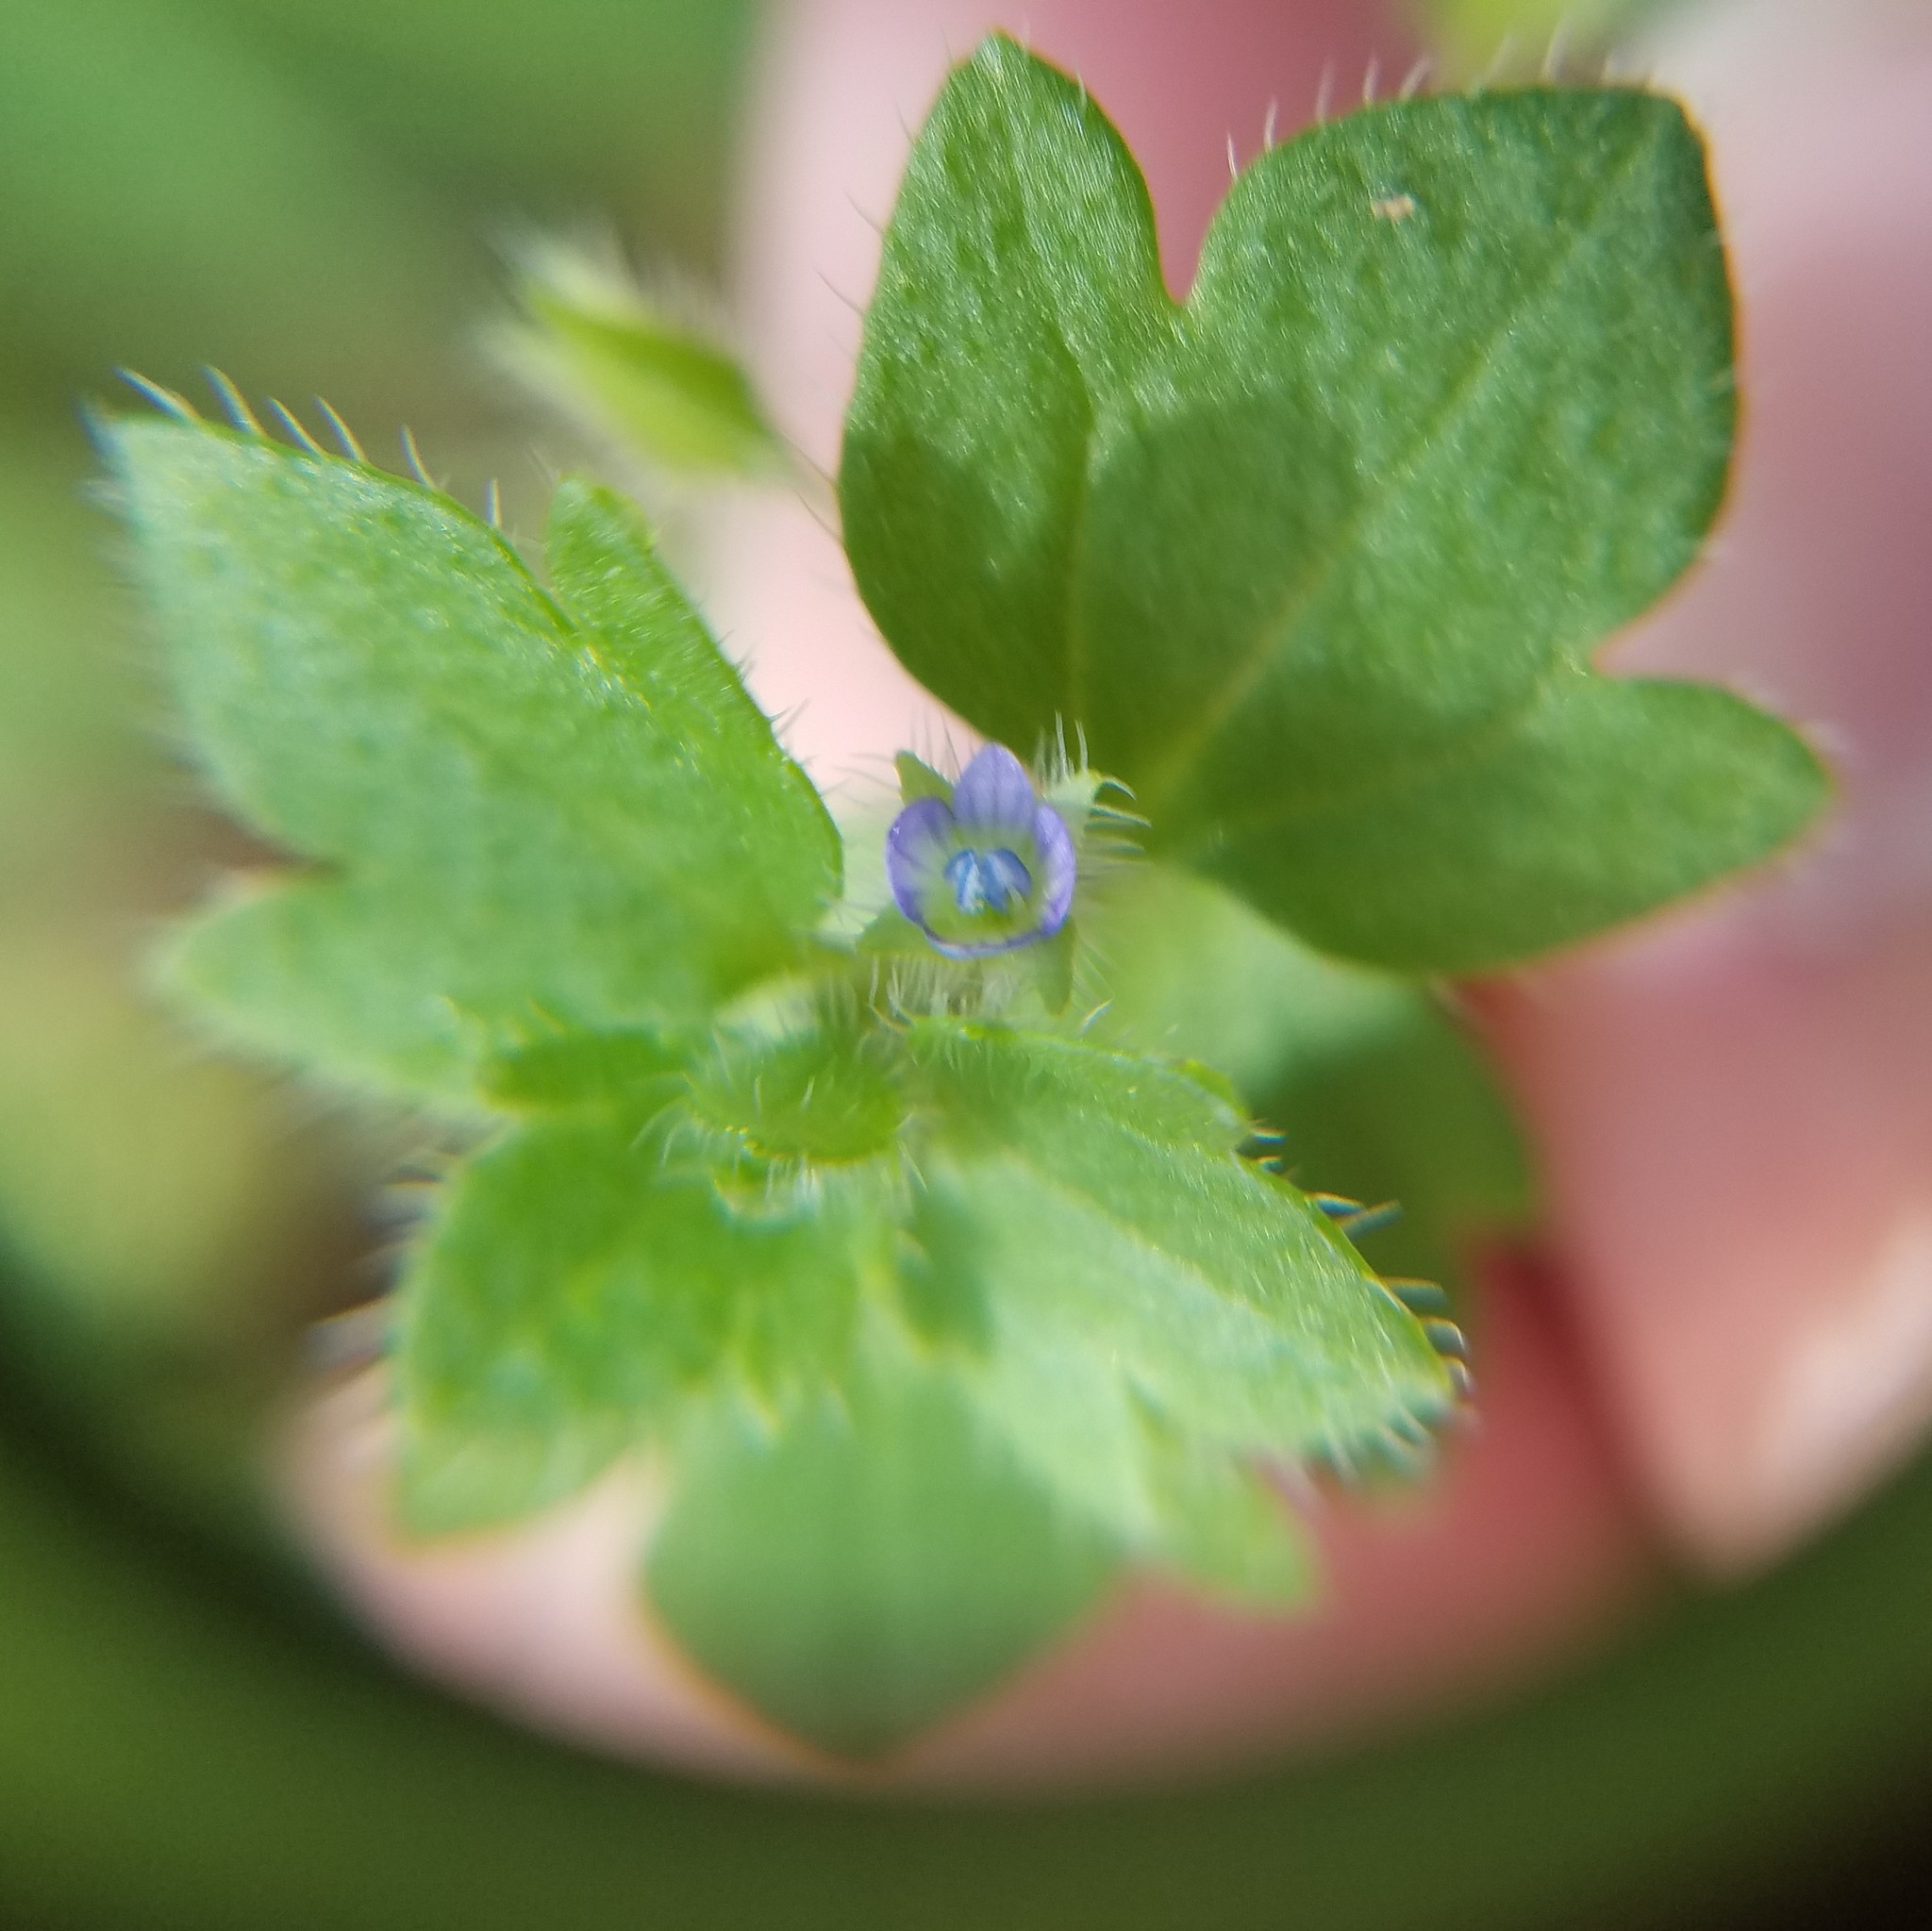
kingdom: Plantae
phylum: Tracheophyta
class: Magnoliopsida
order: Lamiales
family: Plantaginaceae
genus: Veronica
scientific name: Veronica hederifolia
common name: Ivy-leaved speedwell
